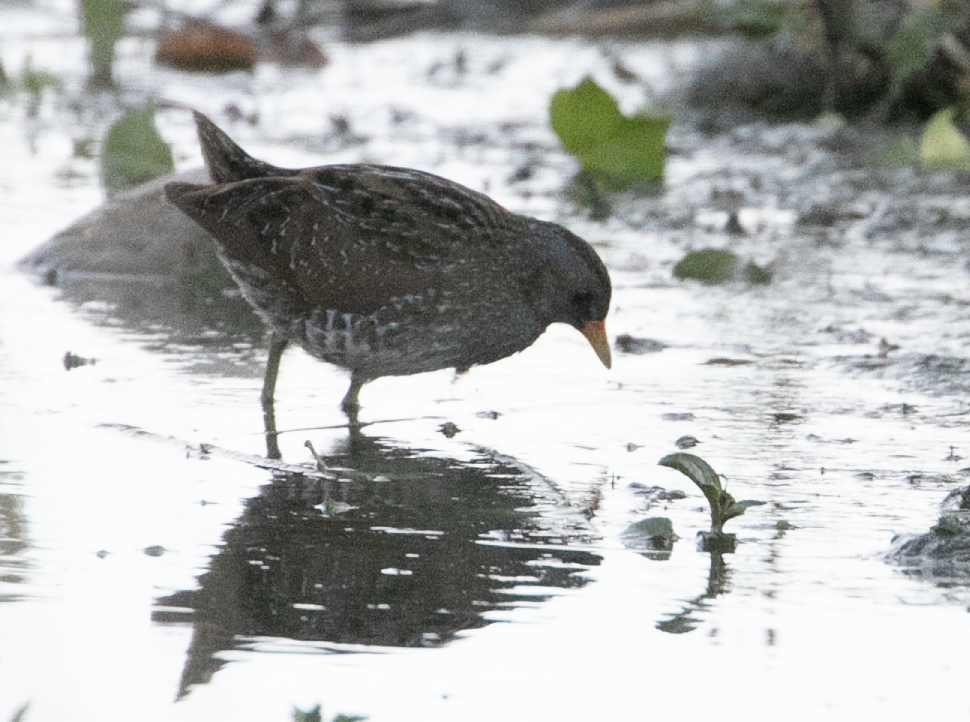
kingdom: Animalia
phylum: Chordata
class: Aves
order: Gruiformes
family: Rallidae
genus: Porzana
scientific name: Porzana porzana
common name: Spotted crake
